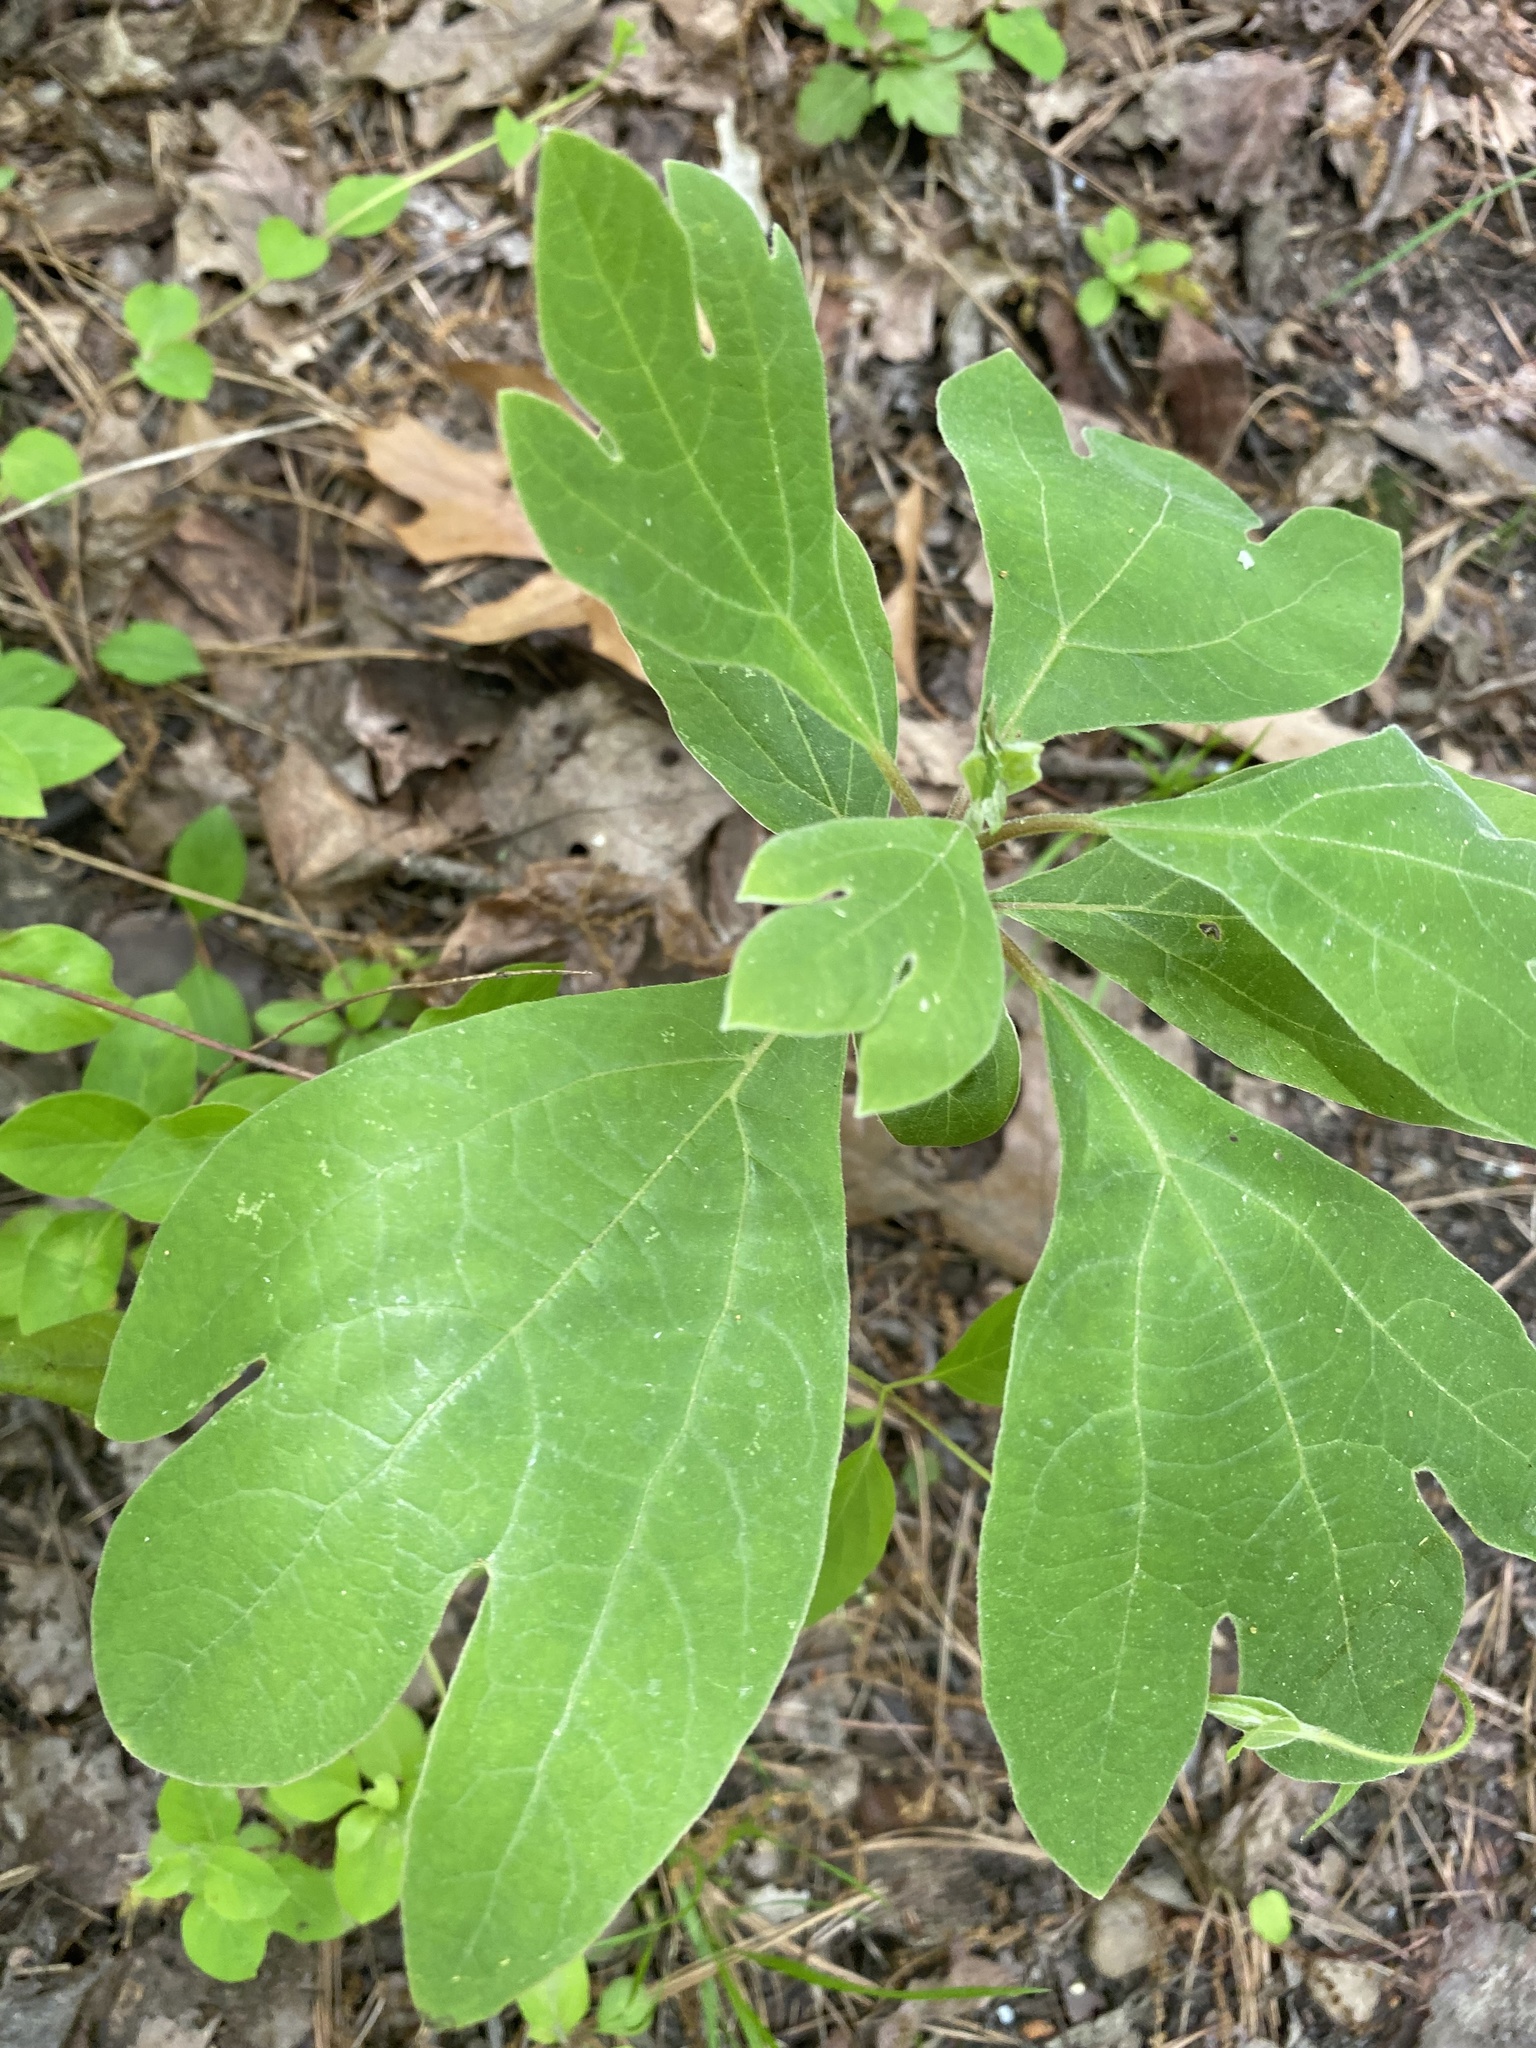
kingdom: Plantae
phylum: Tracheophyta
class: Magnoliopsida
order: Laurales
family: Lauraceae
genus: Sassafras
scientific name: Sassafras albidum
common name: Sassafras
